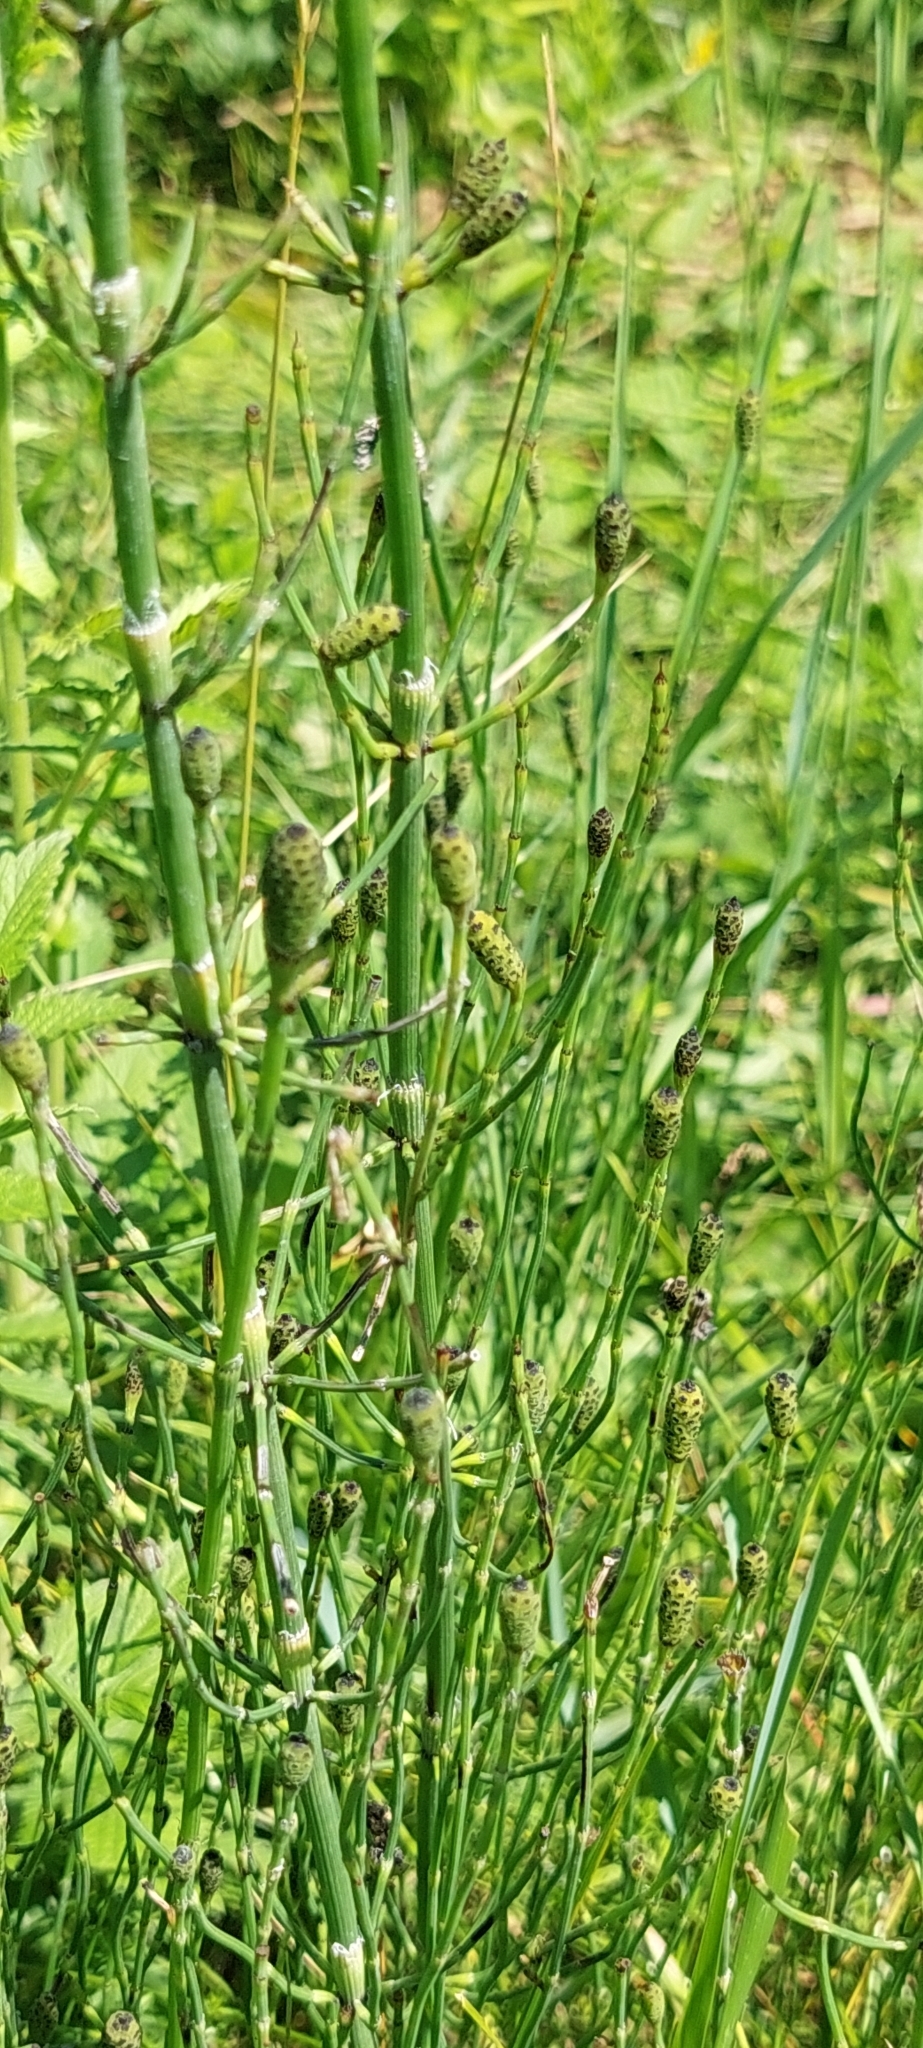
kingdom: Plantae
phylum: Tracheophyta
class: Polypodiopsida
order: Equisetales
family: Equisetaceae
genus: Equisetum
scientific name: Equisetum ramosissimum
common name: Branched horsetail
